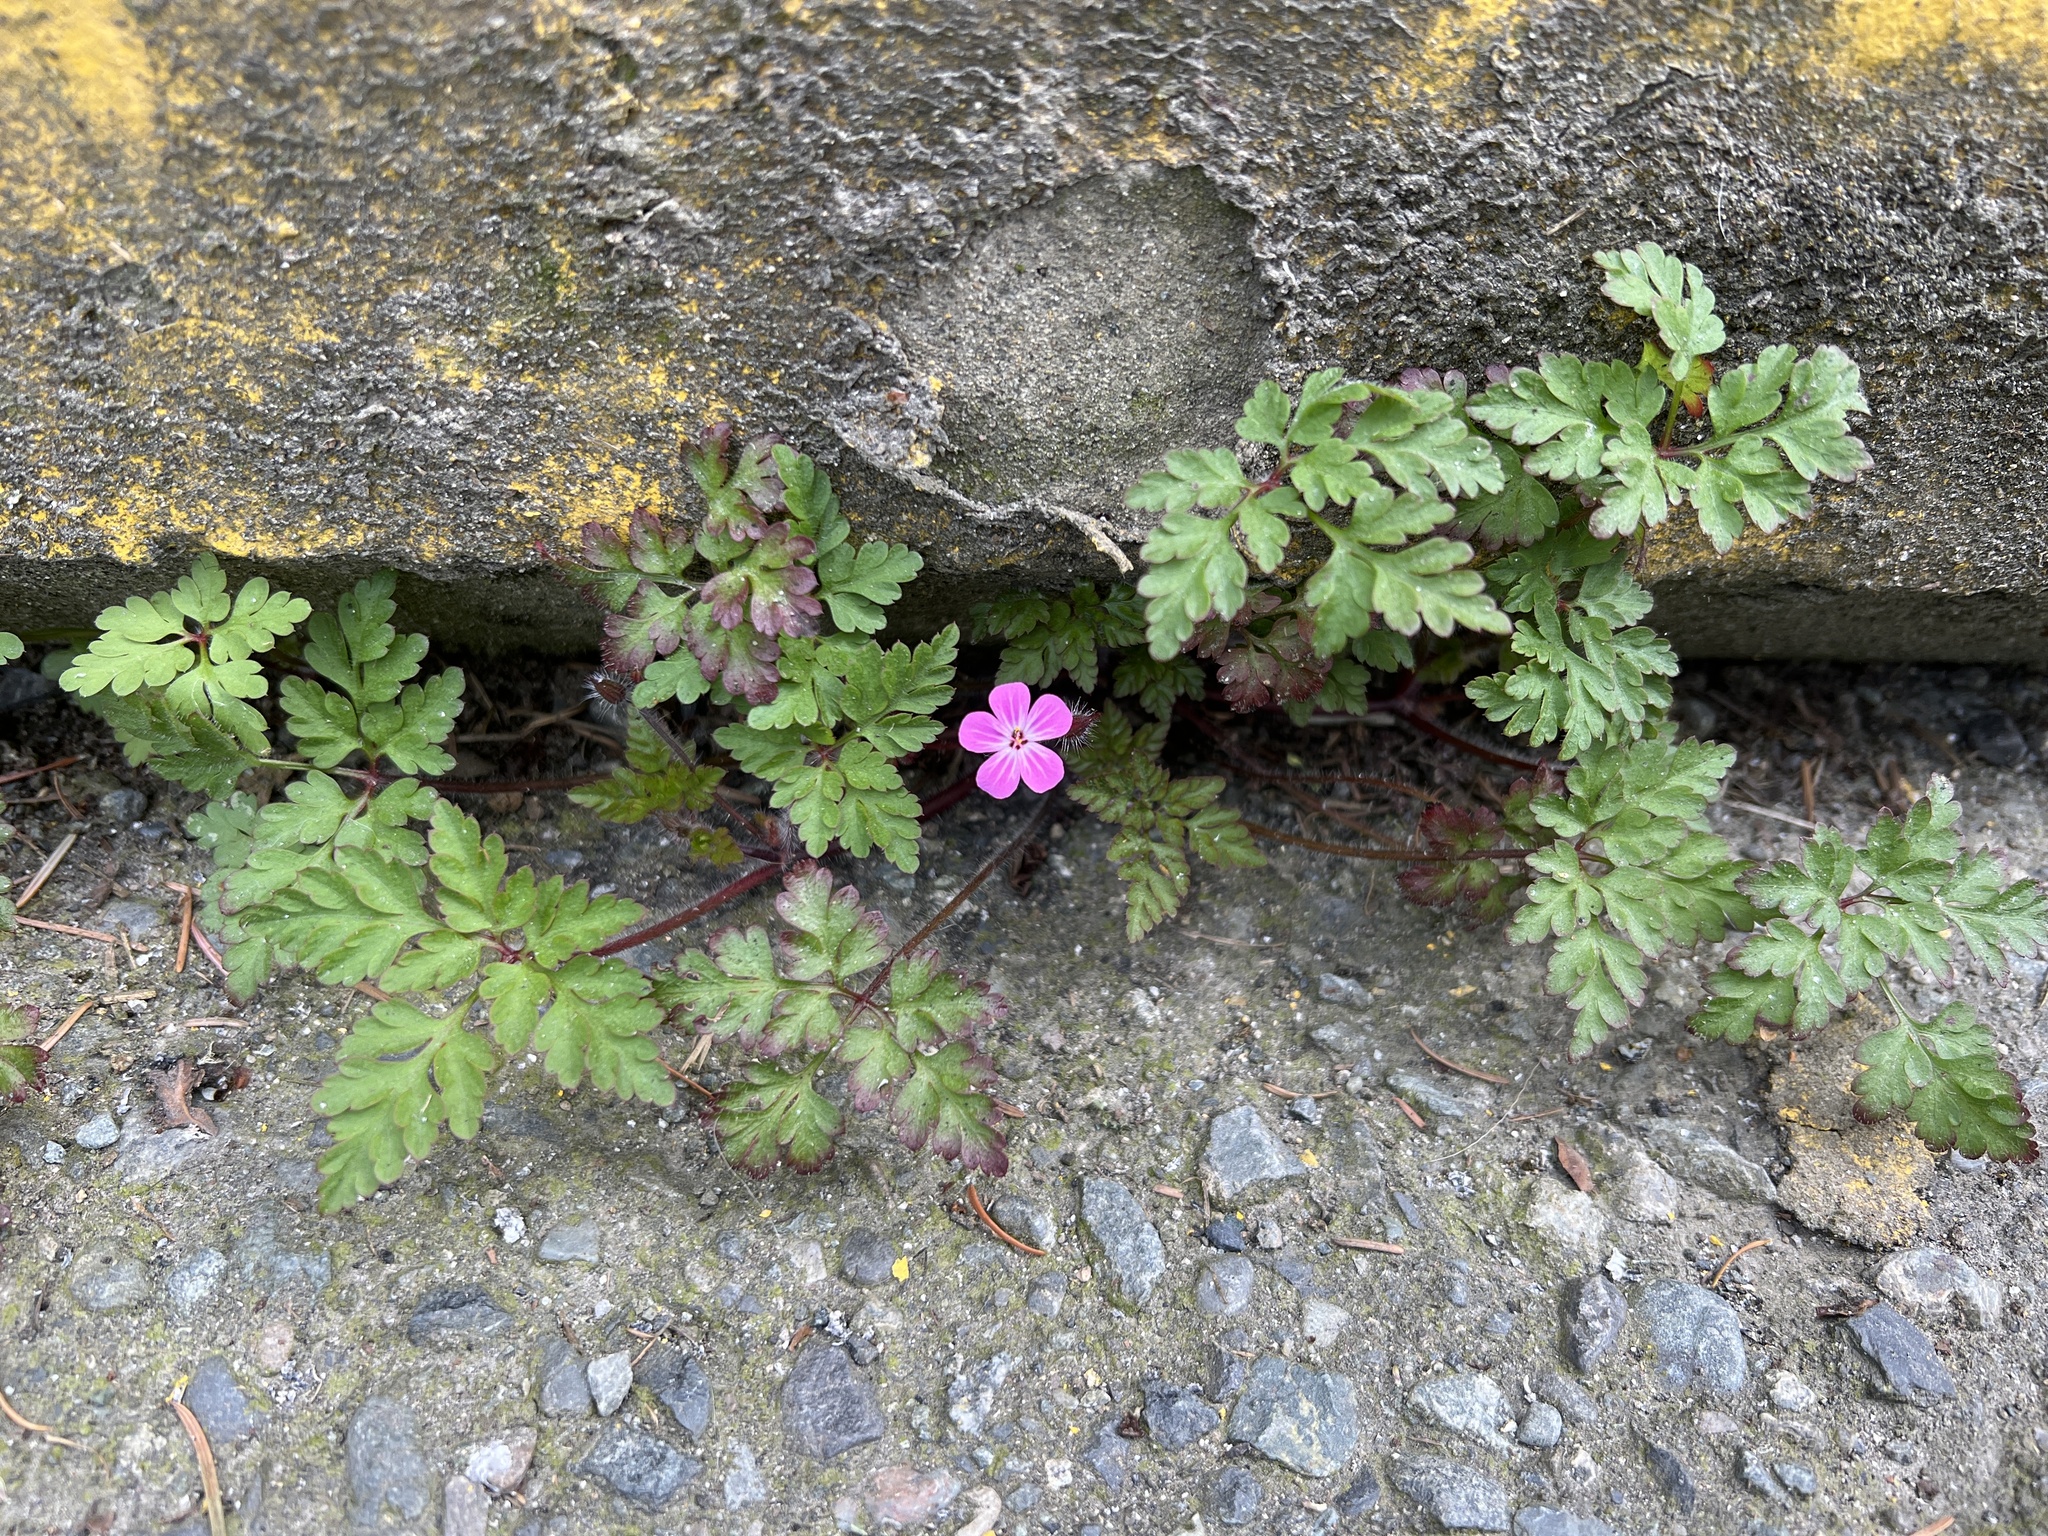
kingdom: Plantae
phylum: Tracheophyta
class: Magnoliopsida
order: Geraniales
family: Geraniaceae
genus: Geranium
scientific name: Geranium robertianum
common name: Herb-robert
